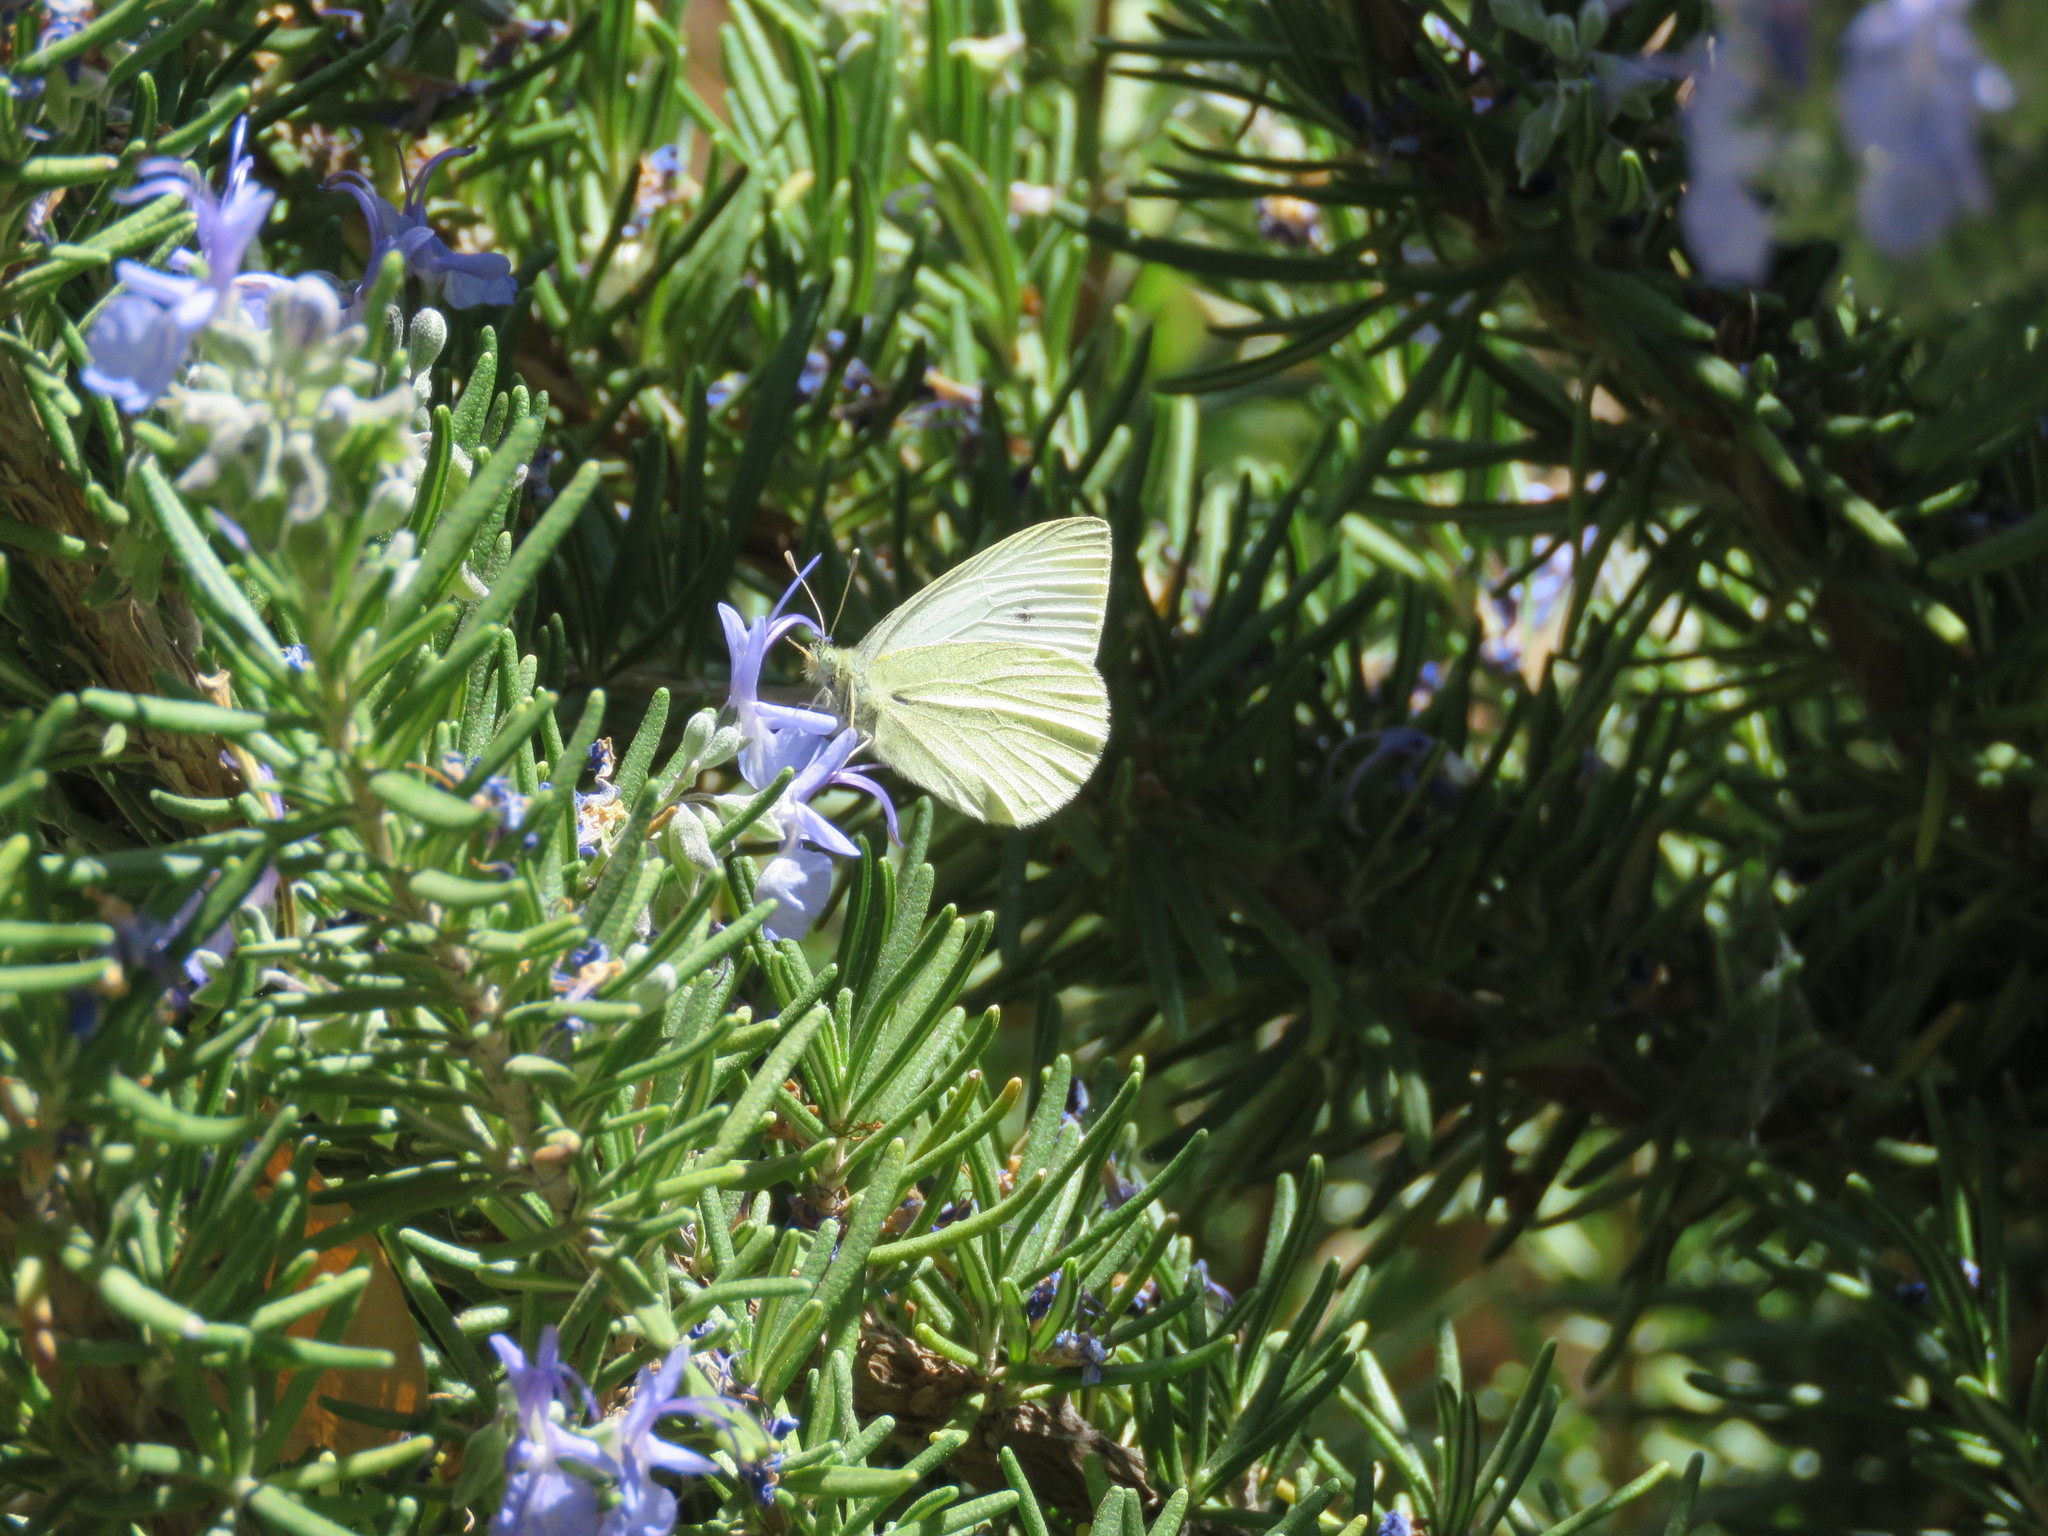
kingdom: Animalia
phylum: Arthropoda
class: Insecta
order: Lepidoptera
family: Pieridae
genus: Pieris
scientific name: Pieris rapae
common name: Small white
